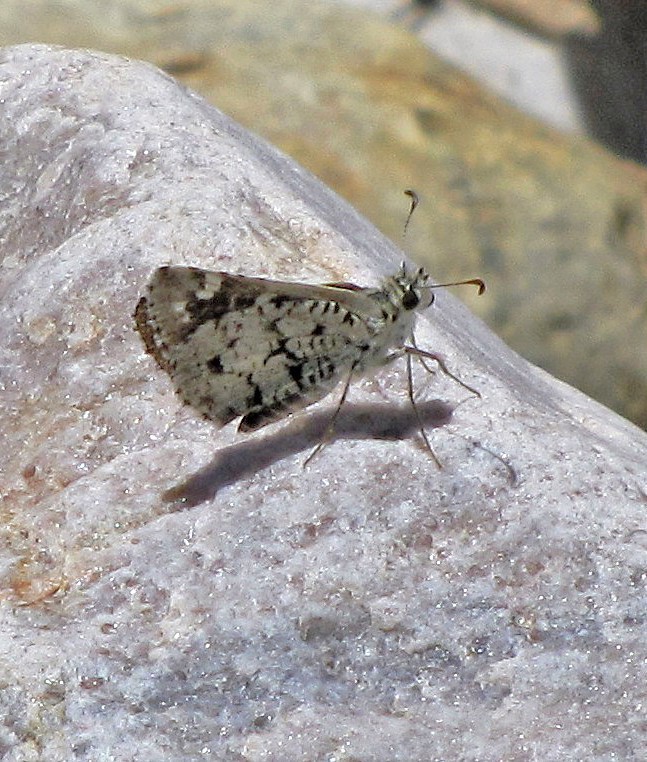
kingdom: Animalia
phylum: Arthropoda
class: Insecta
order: Lepidoptera
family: Hesperiidae
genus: Chirgus
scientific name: Chirgus bocchoris
